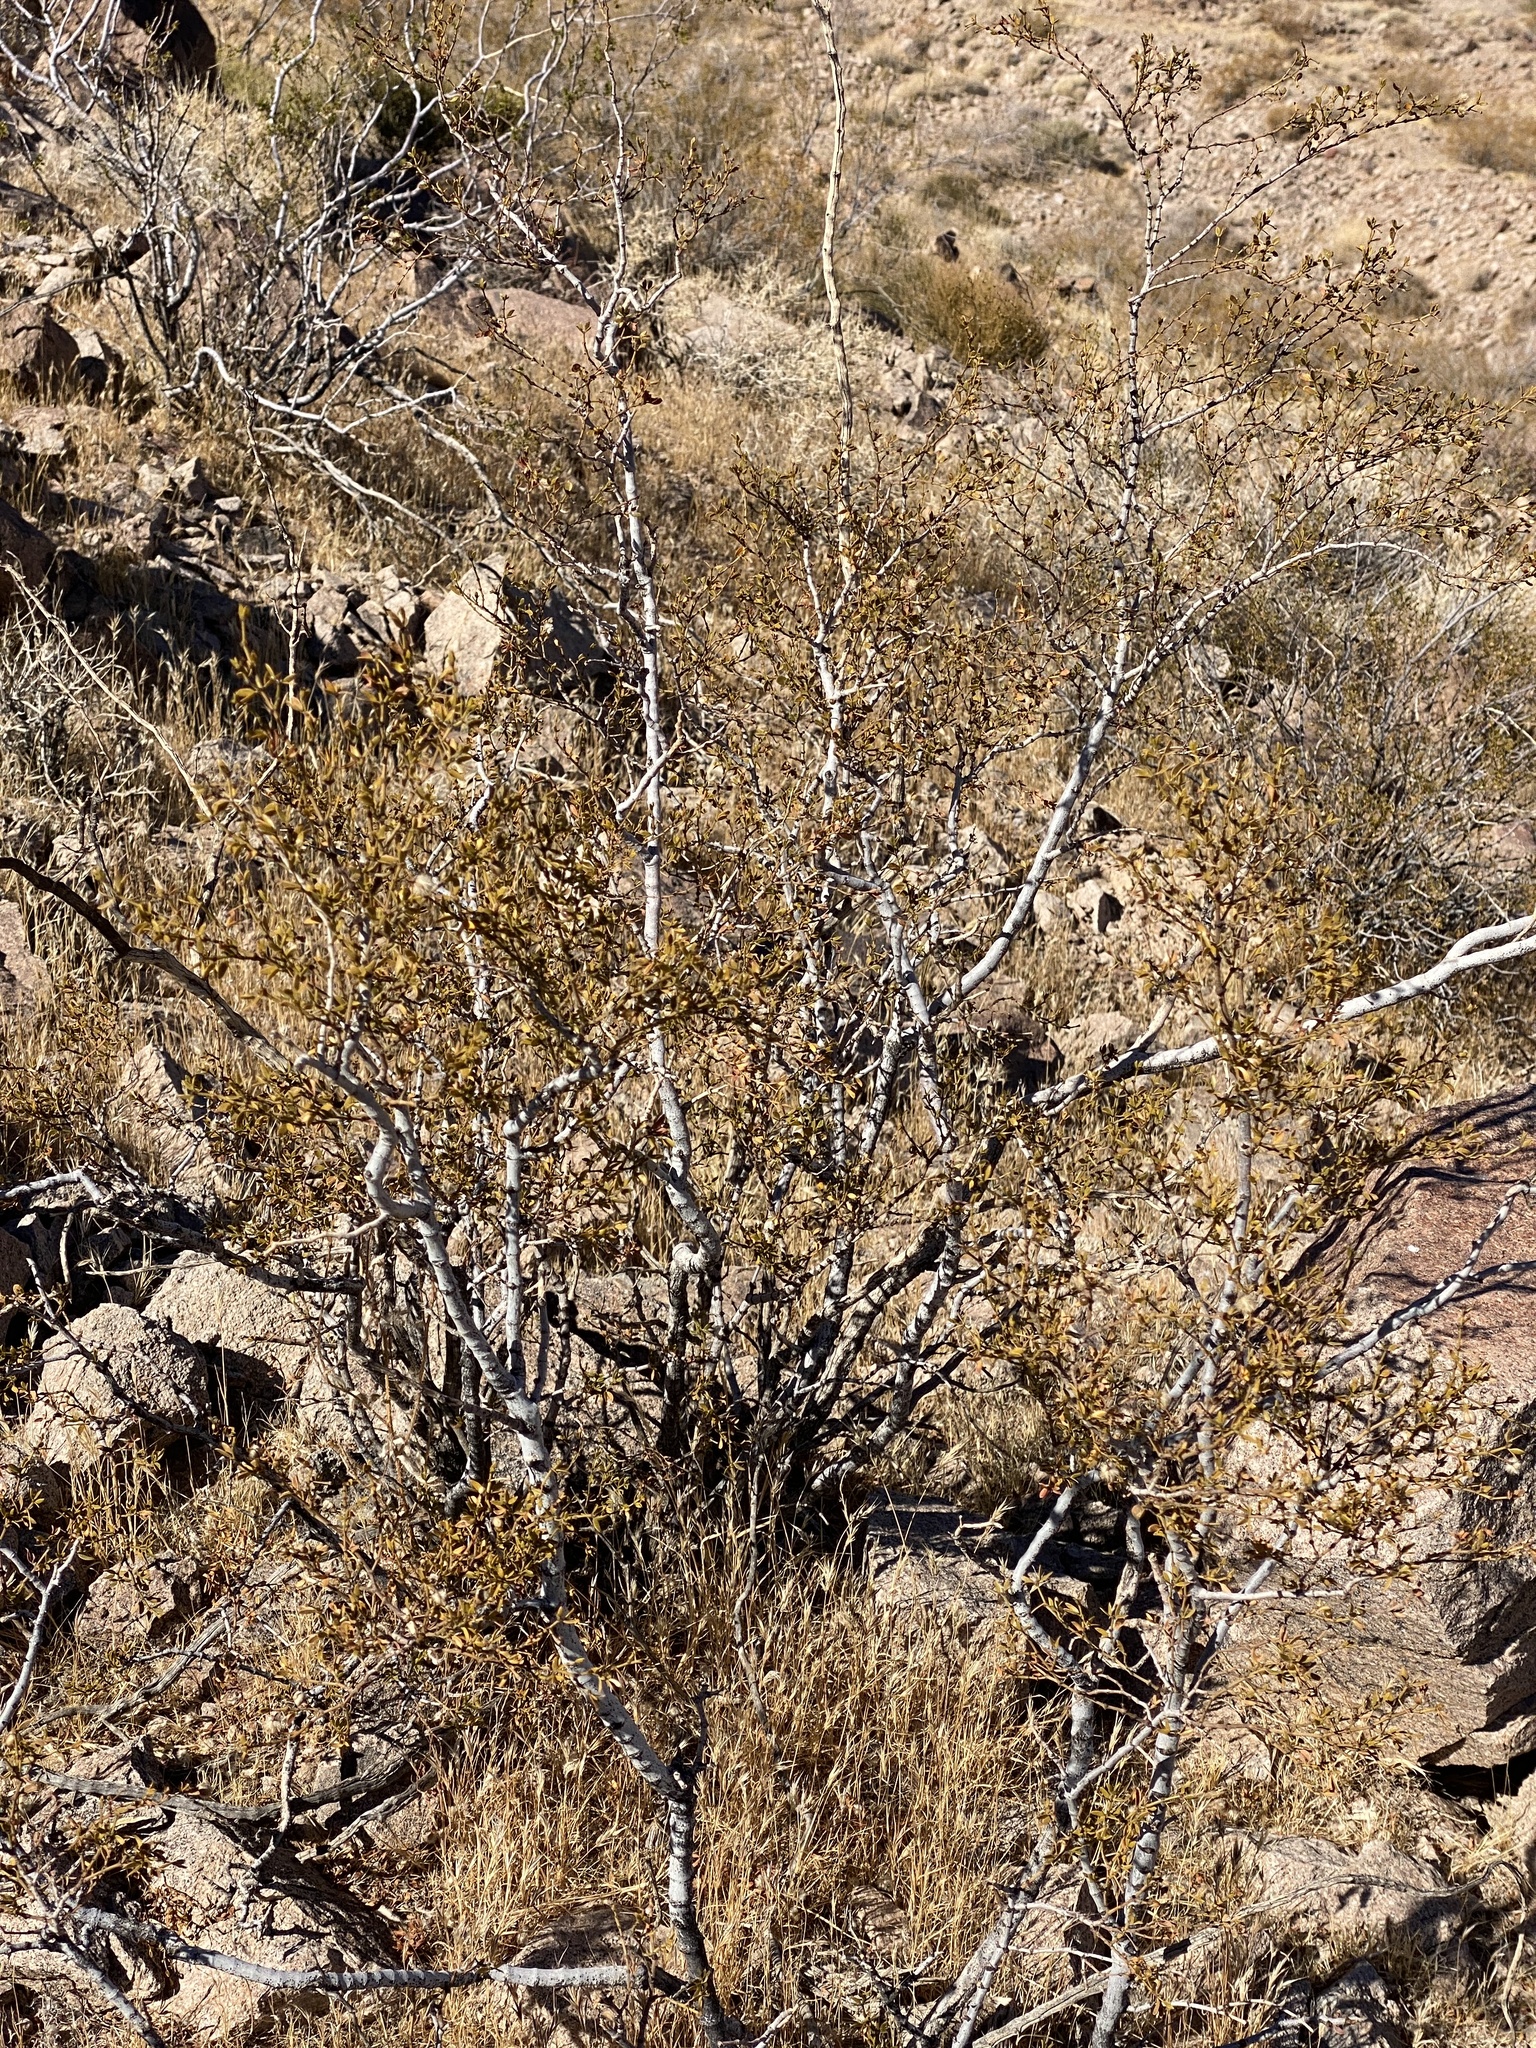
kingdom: Plantae
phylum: Tracheophyta
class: Magnoliopsida
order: Zygophyllales
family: Zygophyllaceae
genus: Larrea
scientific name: Larrea tridentata
